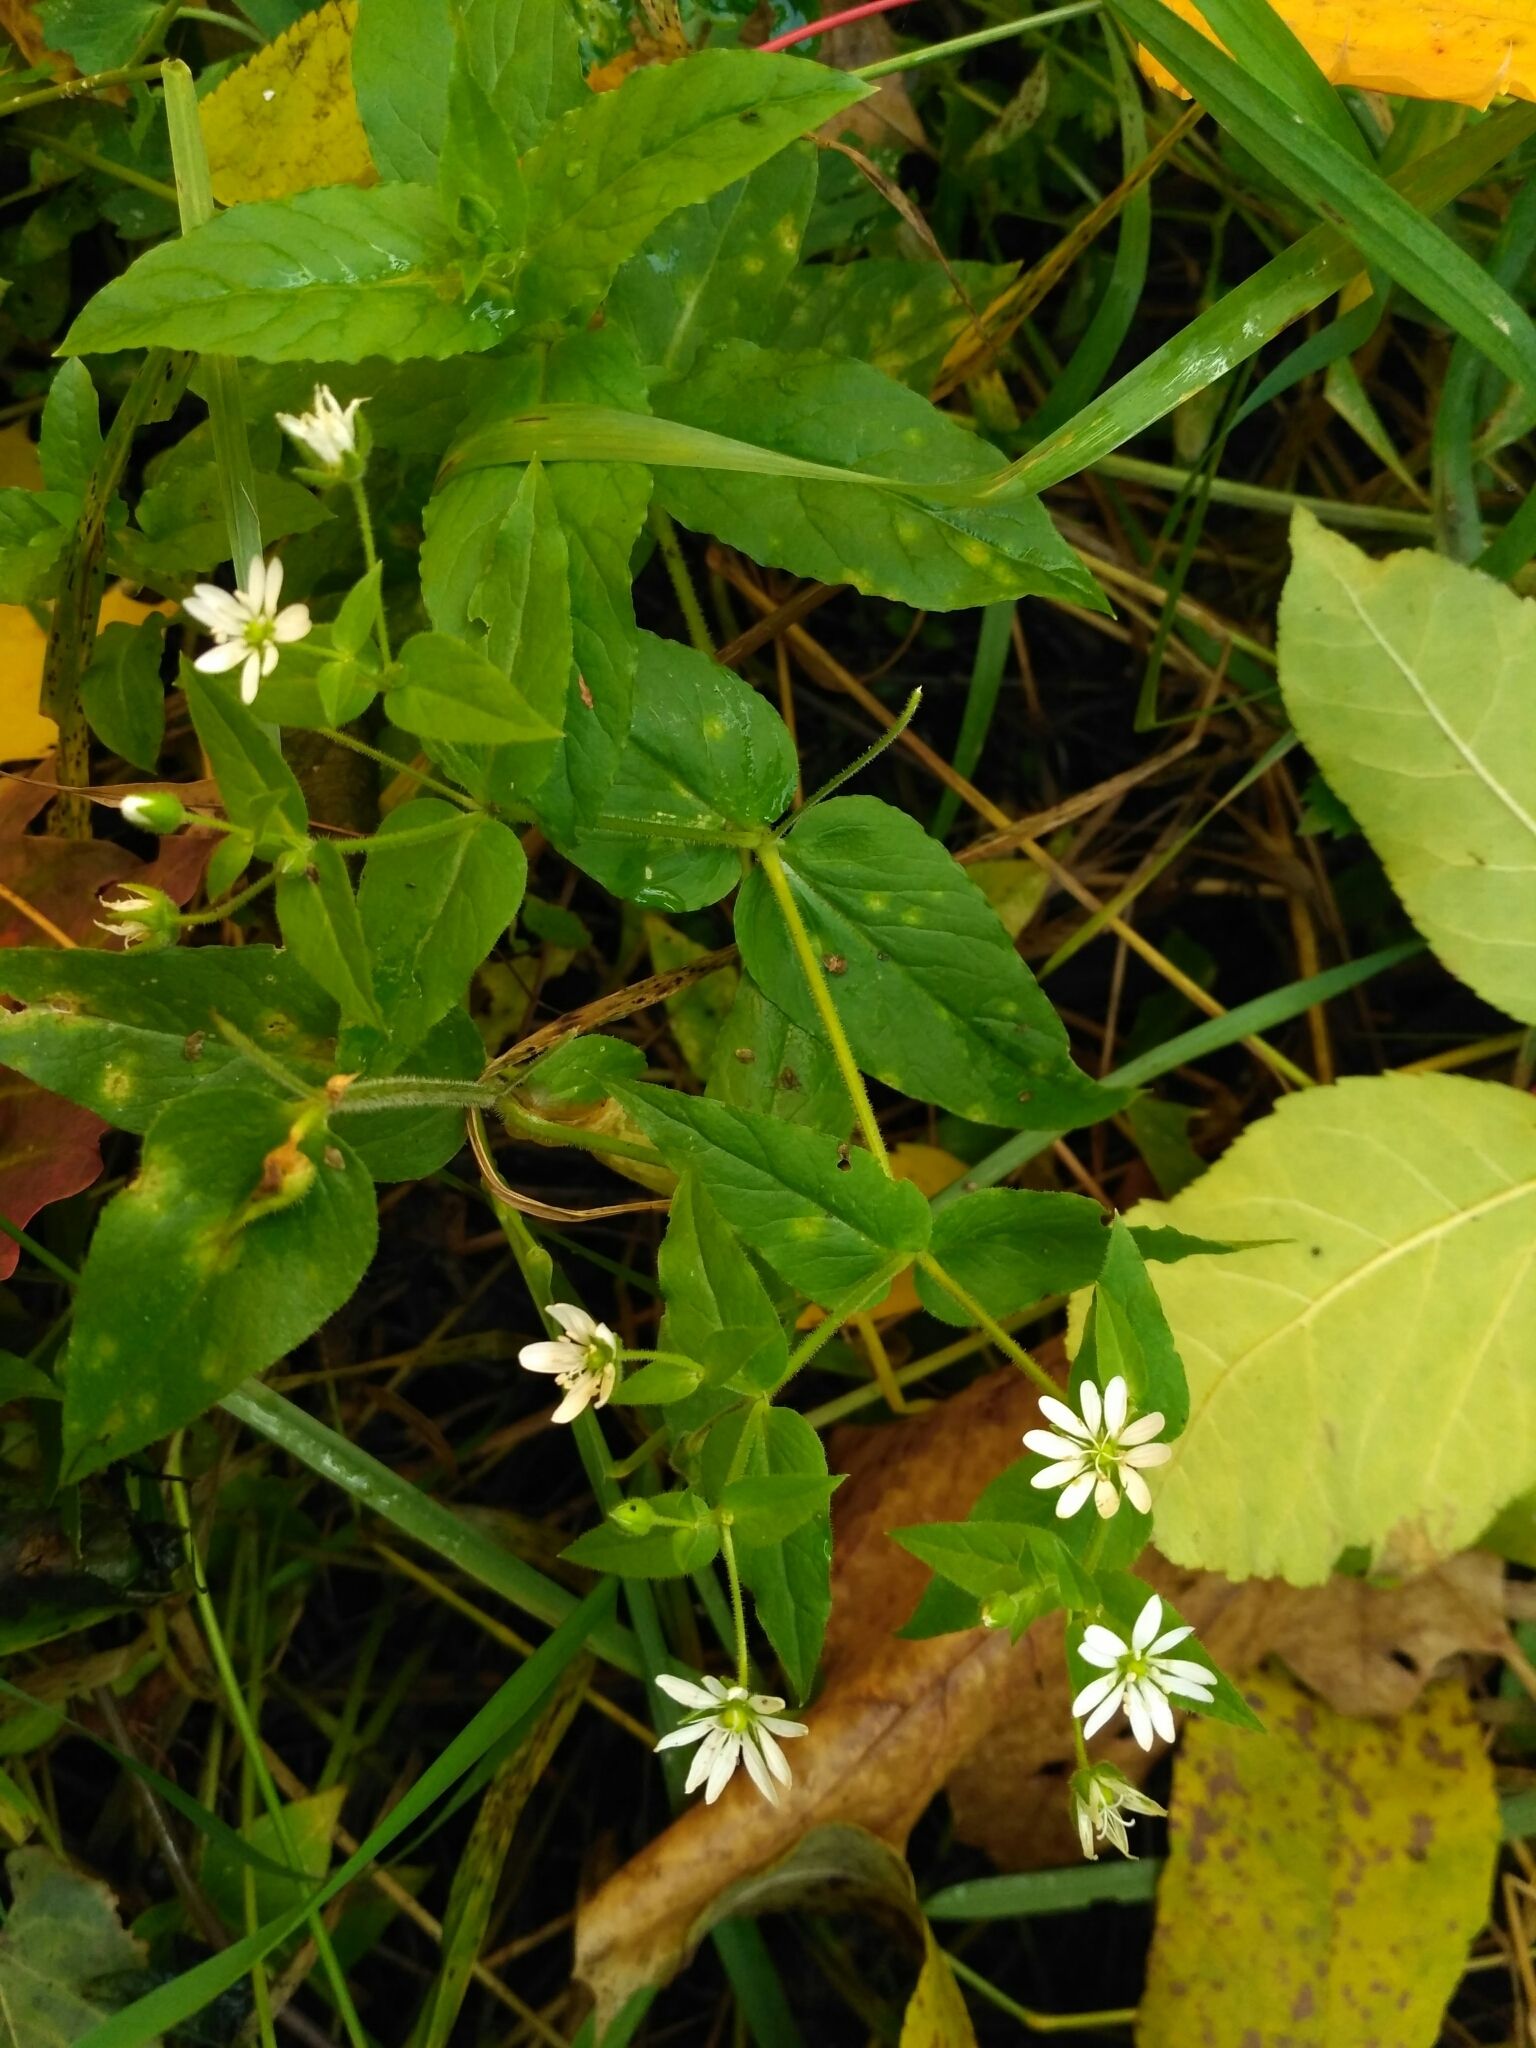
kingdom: Plantae
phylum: Tracheophyta
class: Magnoliopsida
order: Caryophyllales
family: Caryophyllaceae
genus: Stellaria
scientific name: Stellaria aquatica
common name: Water chickweed
